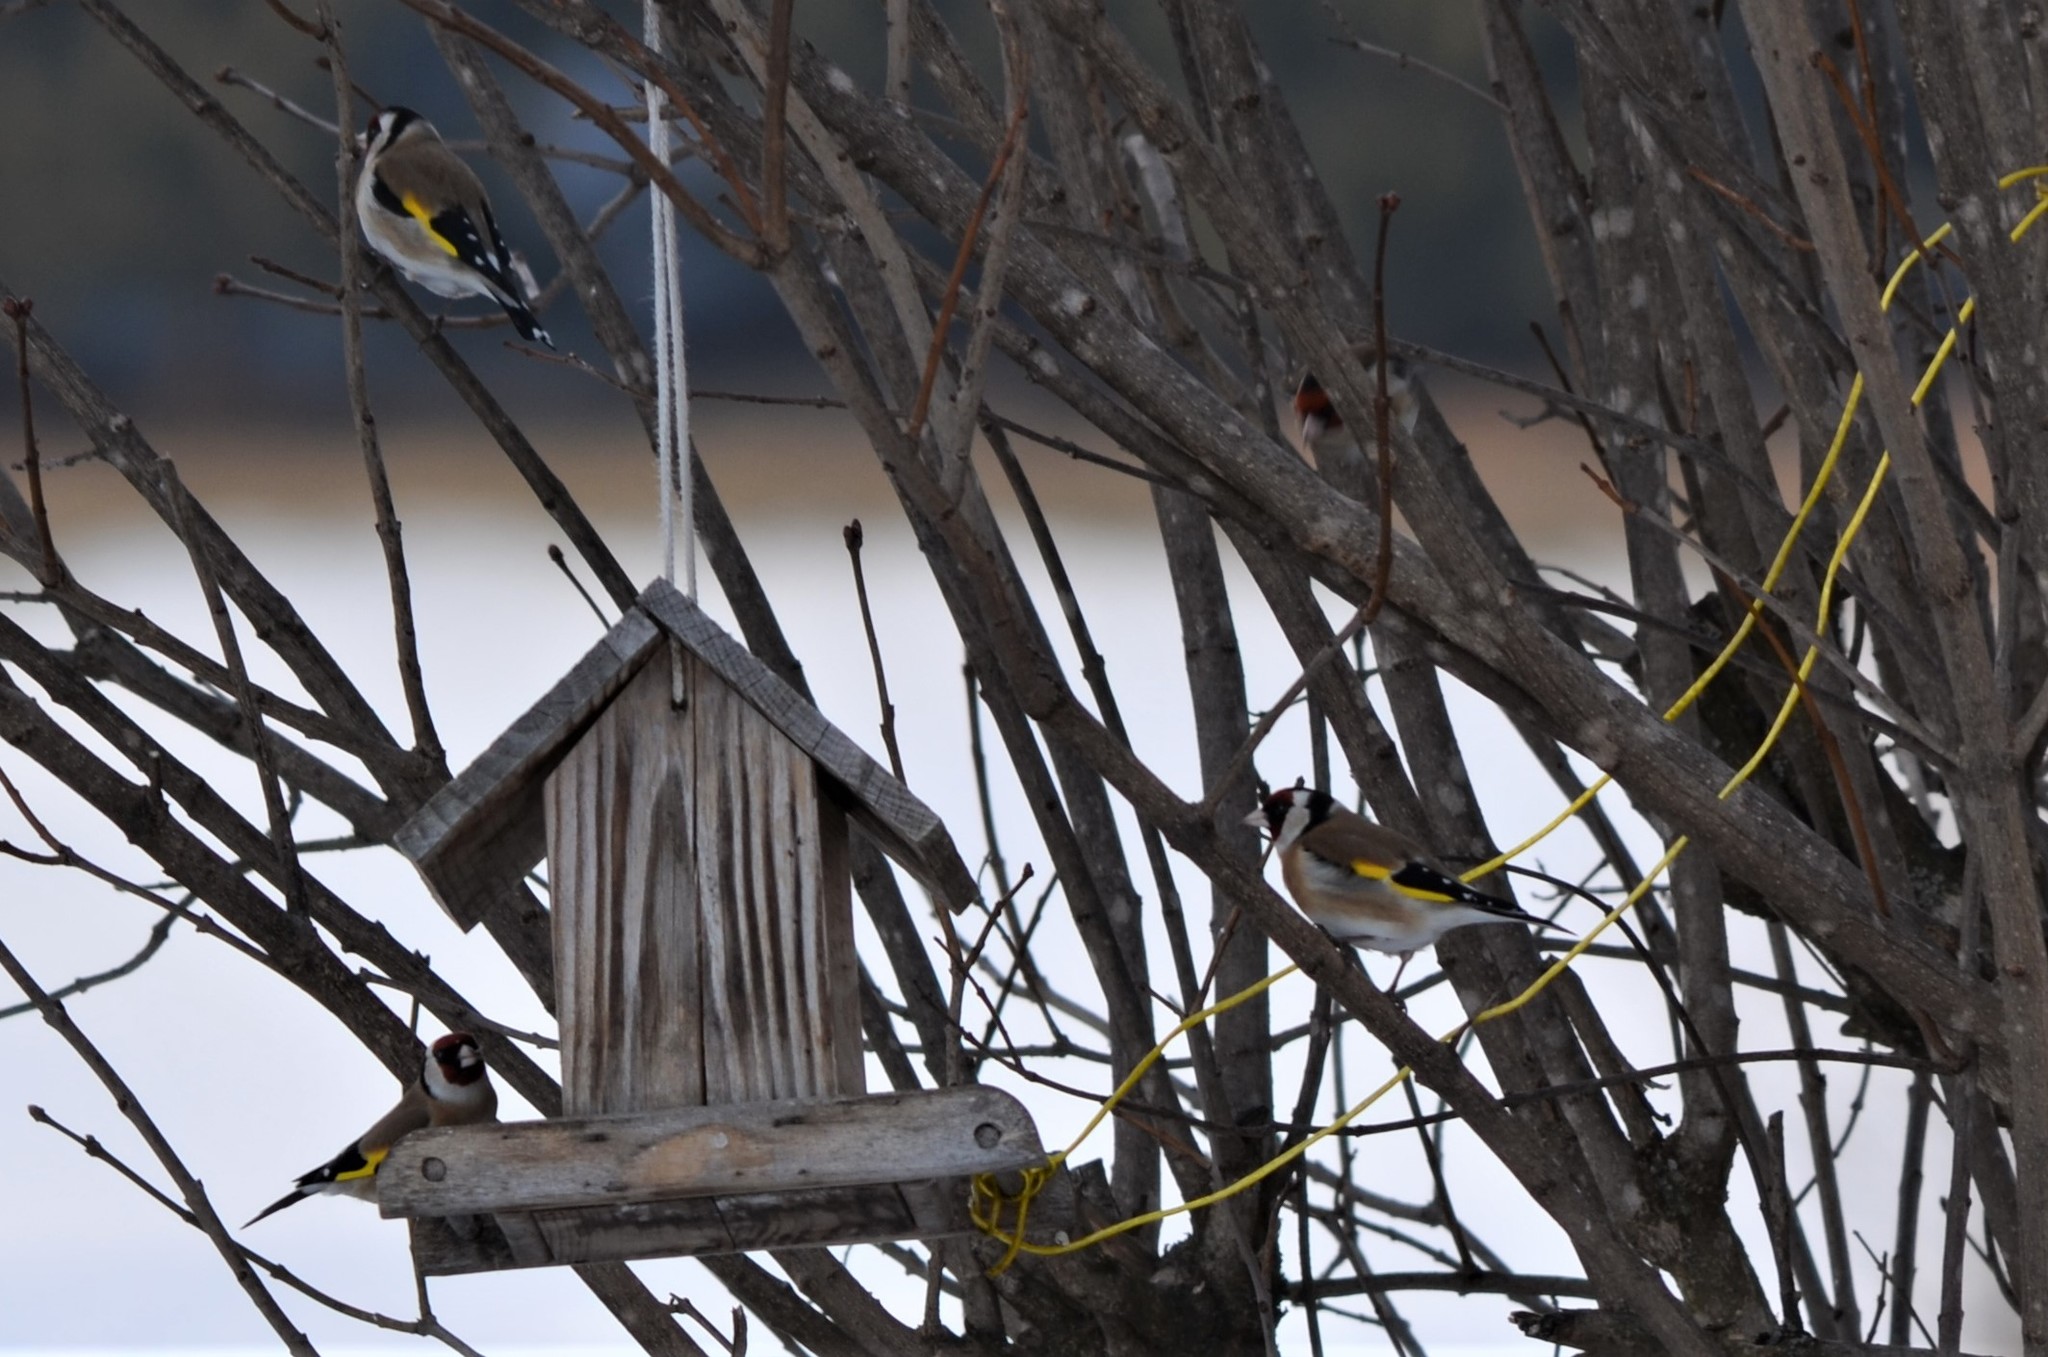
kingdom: Animalia
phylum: Chordata
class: Aves
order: Passeriformes
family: Fringillidae
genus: Carduelis
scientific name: Carduelis carduelis
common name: European goldfinch
